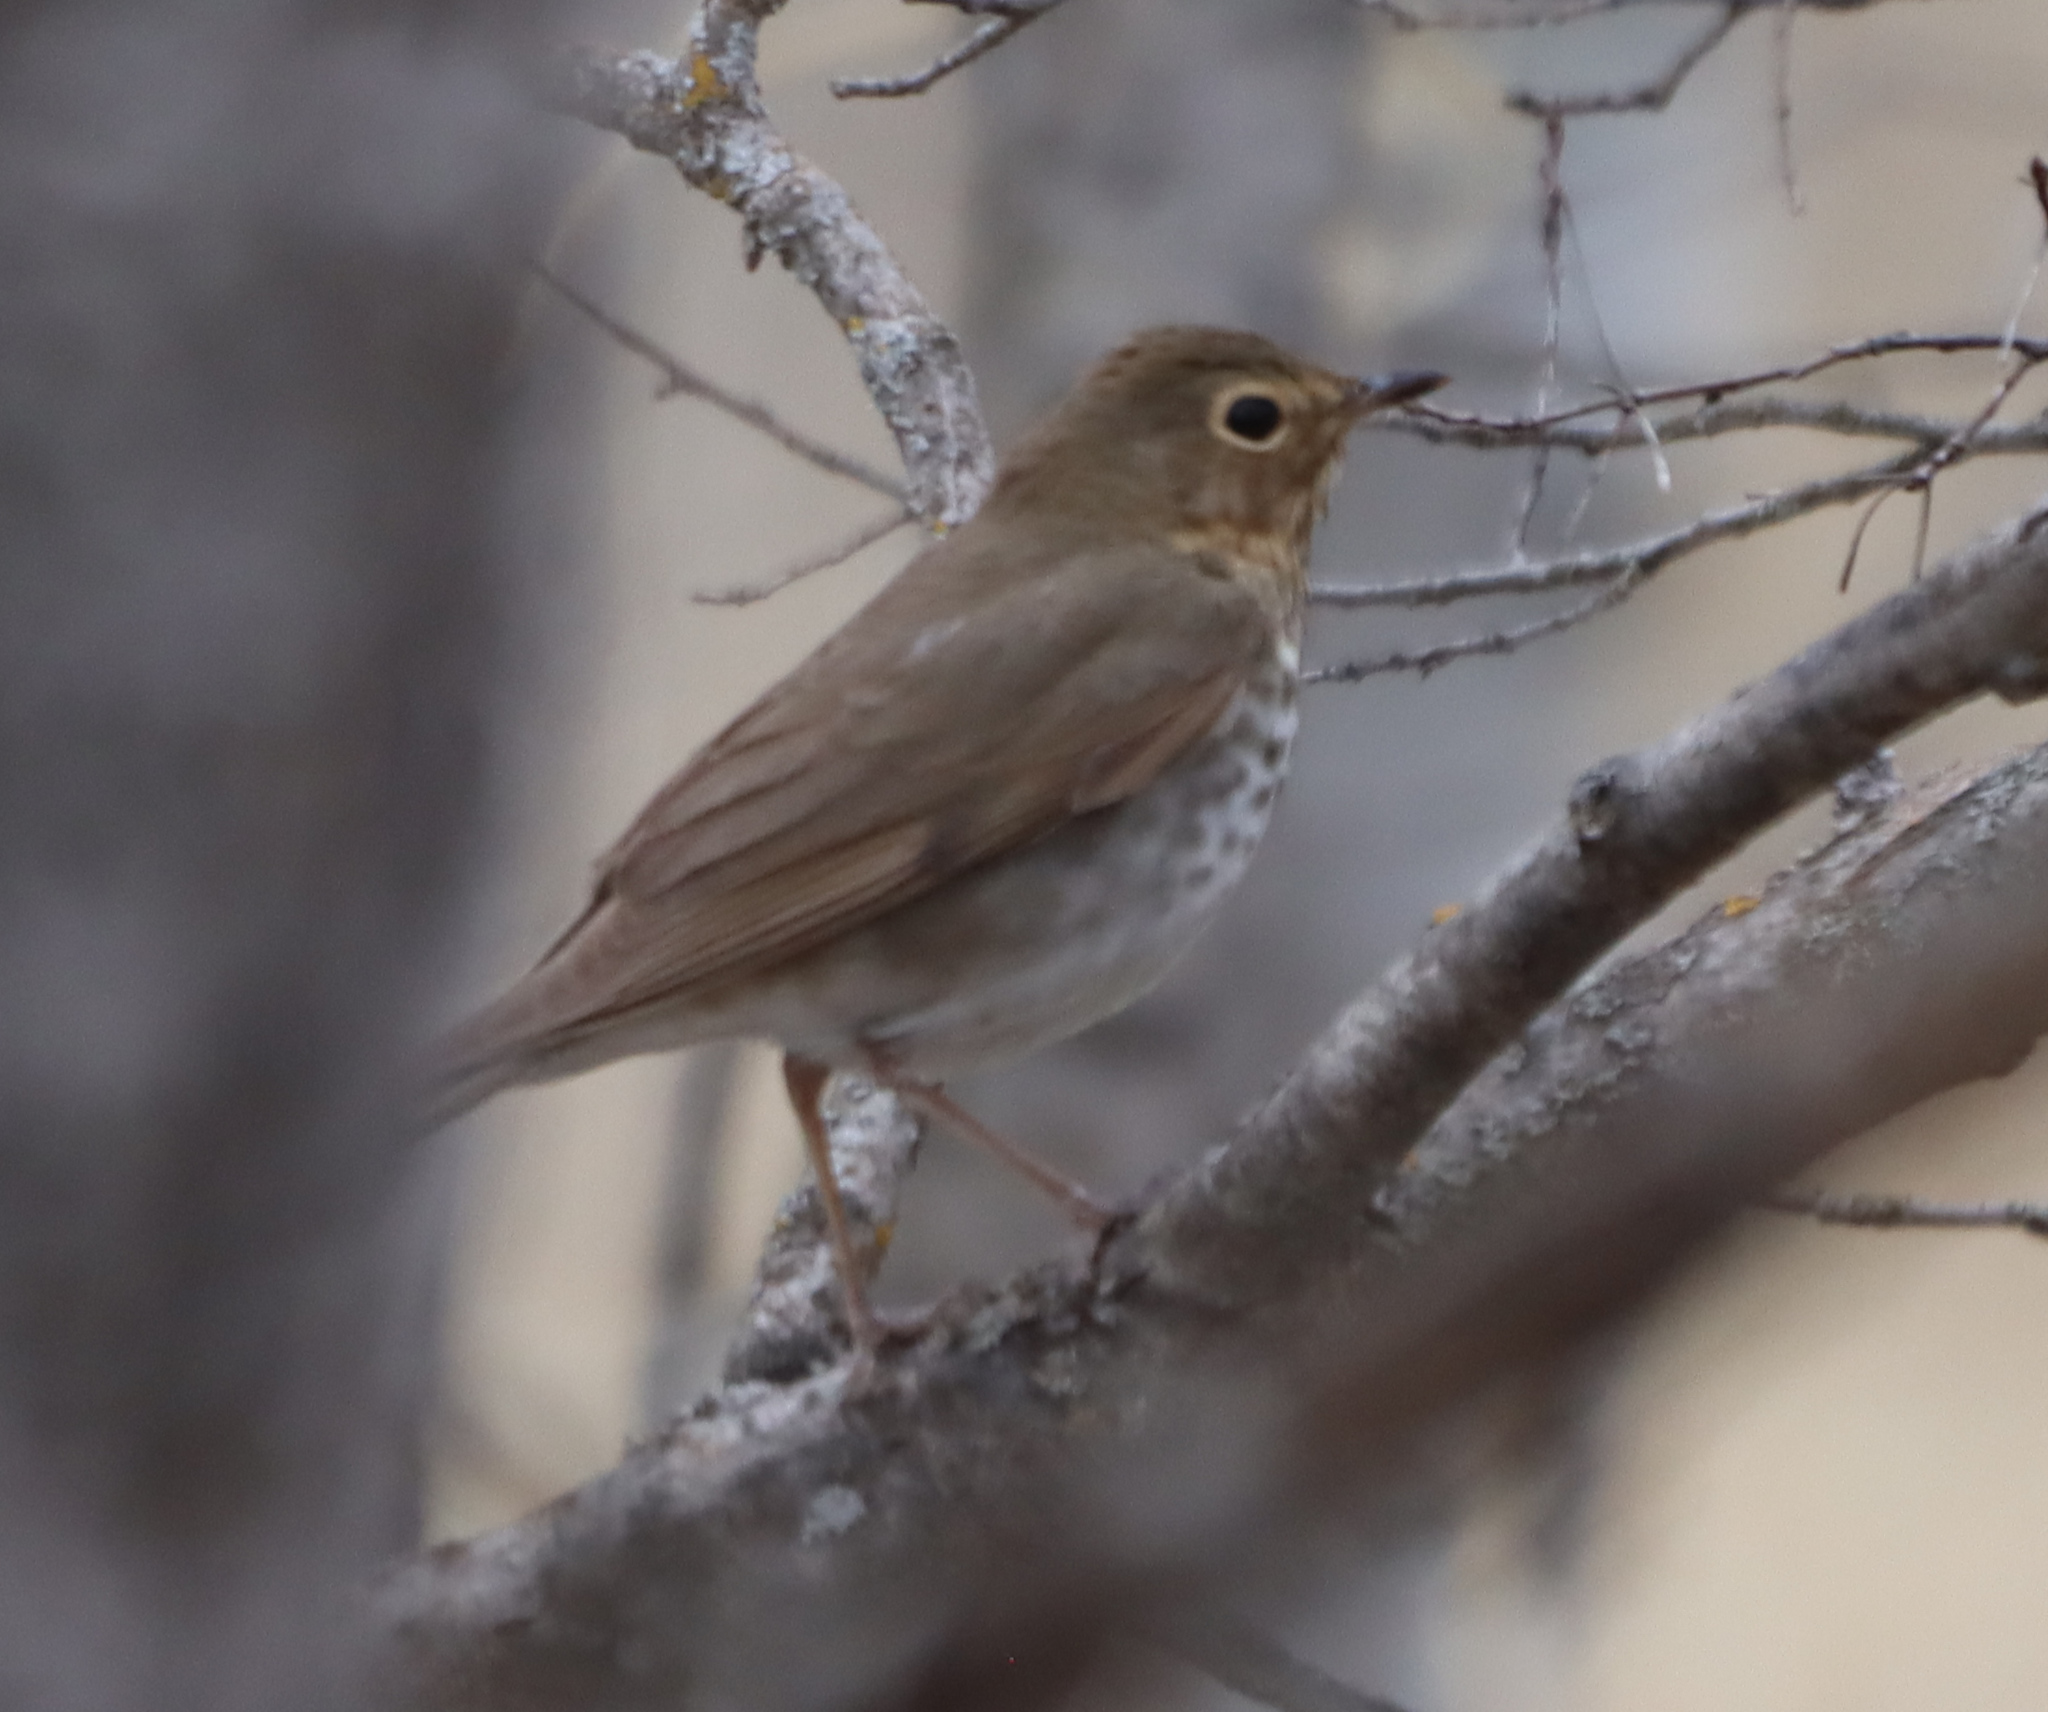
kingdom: Animalia
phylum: Chordata
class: Aves
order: Passeriformes
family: Turdidae
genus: Catharus
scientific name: Catharus ustulatus
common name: Swainson's thrush
